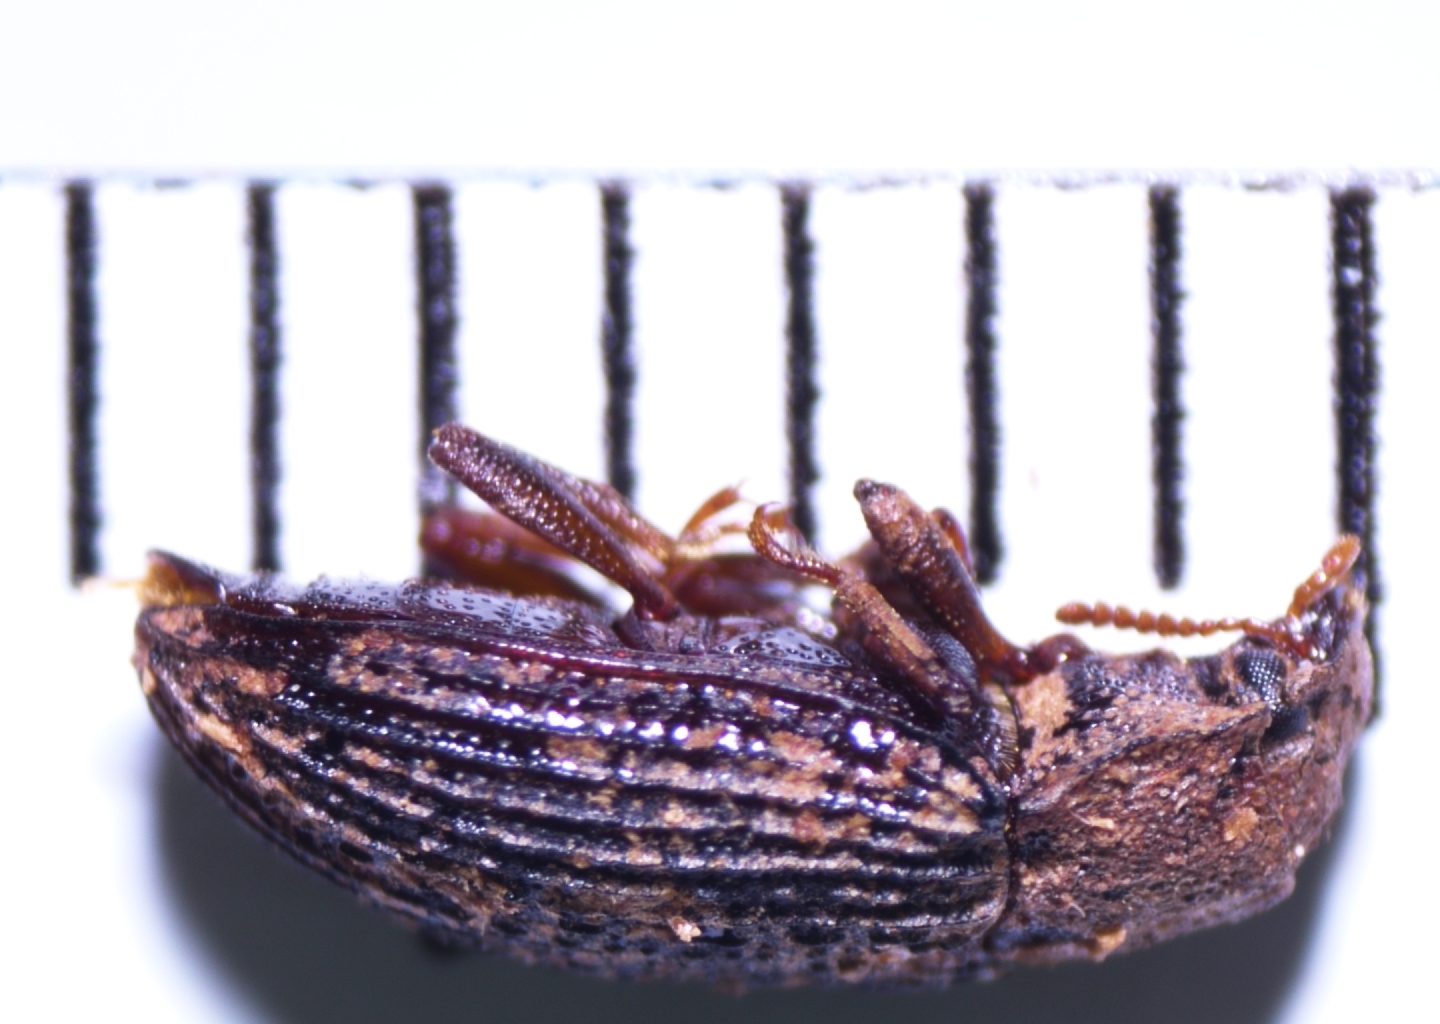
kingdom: Animalia
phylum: Arthropoda
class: Insecta
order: Coleoptera
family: Tenebrionidae
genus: Bradymerus
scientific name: Bradymerus tahitiensis
